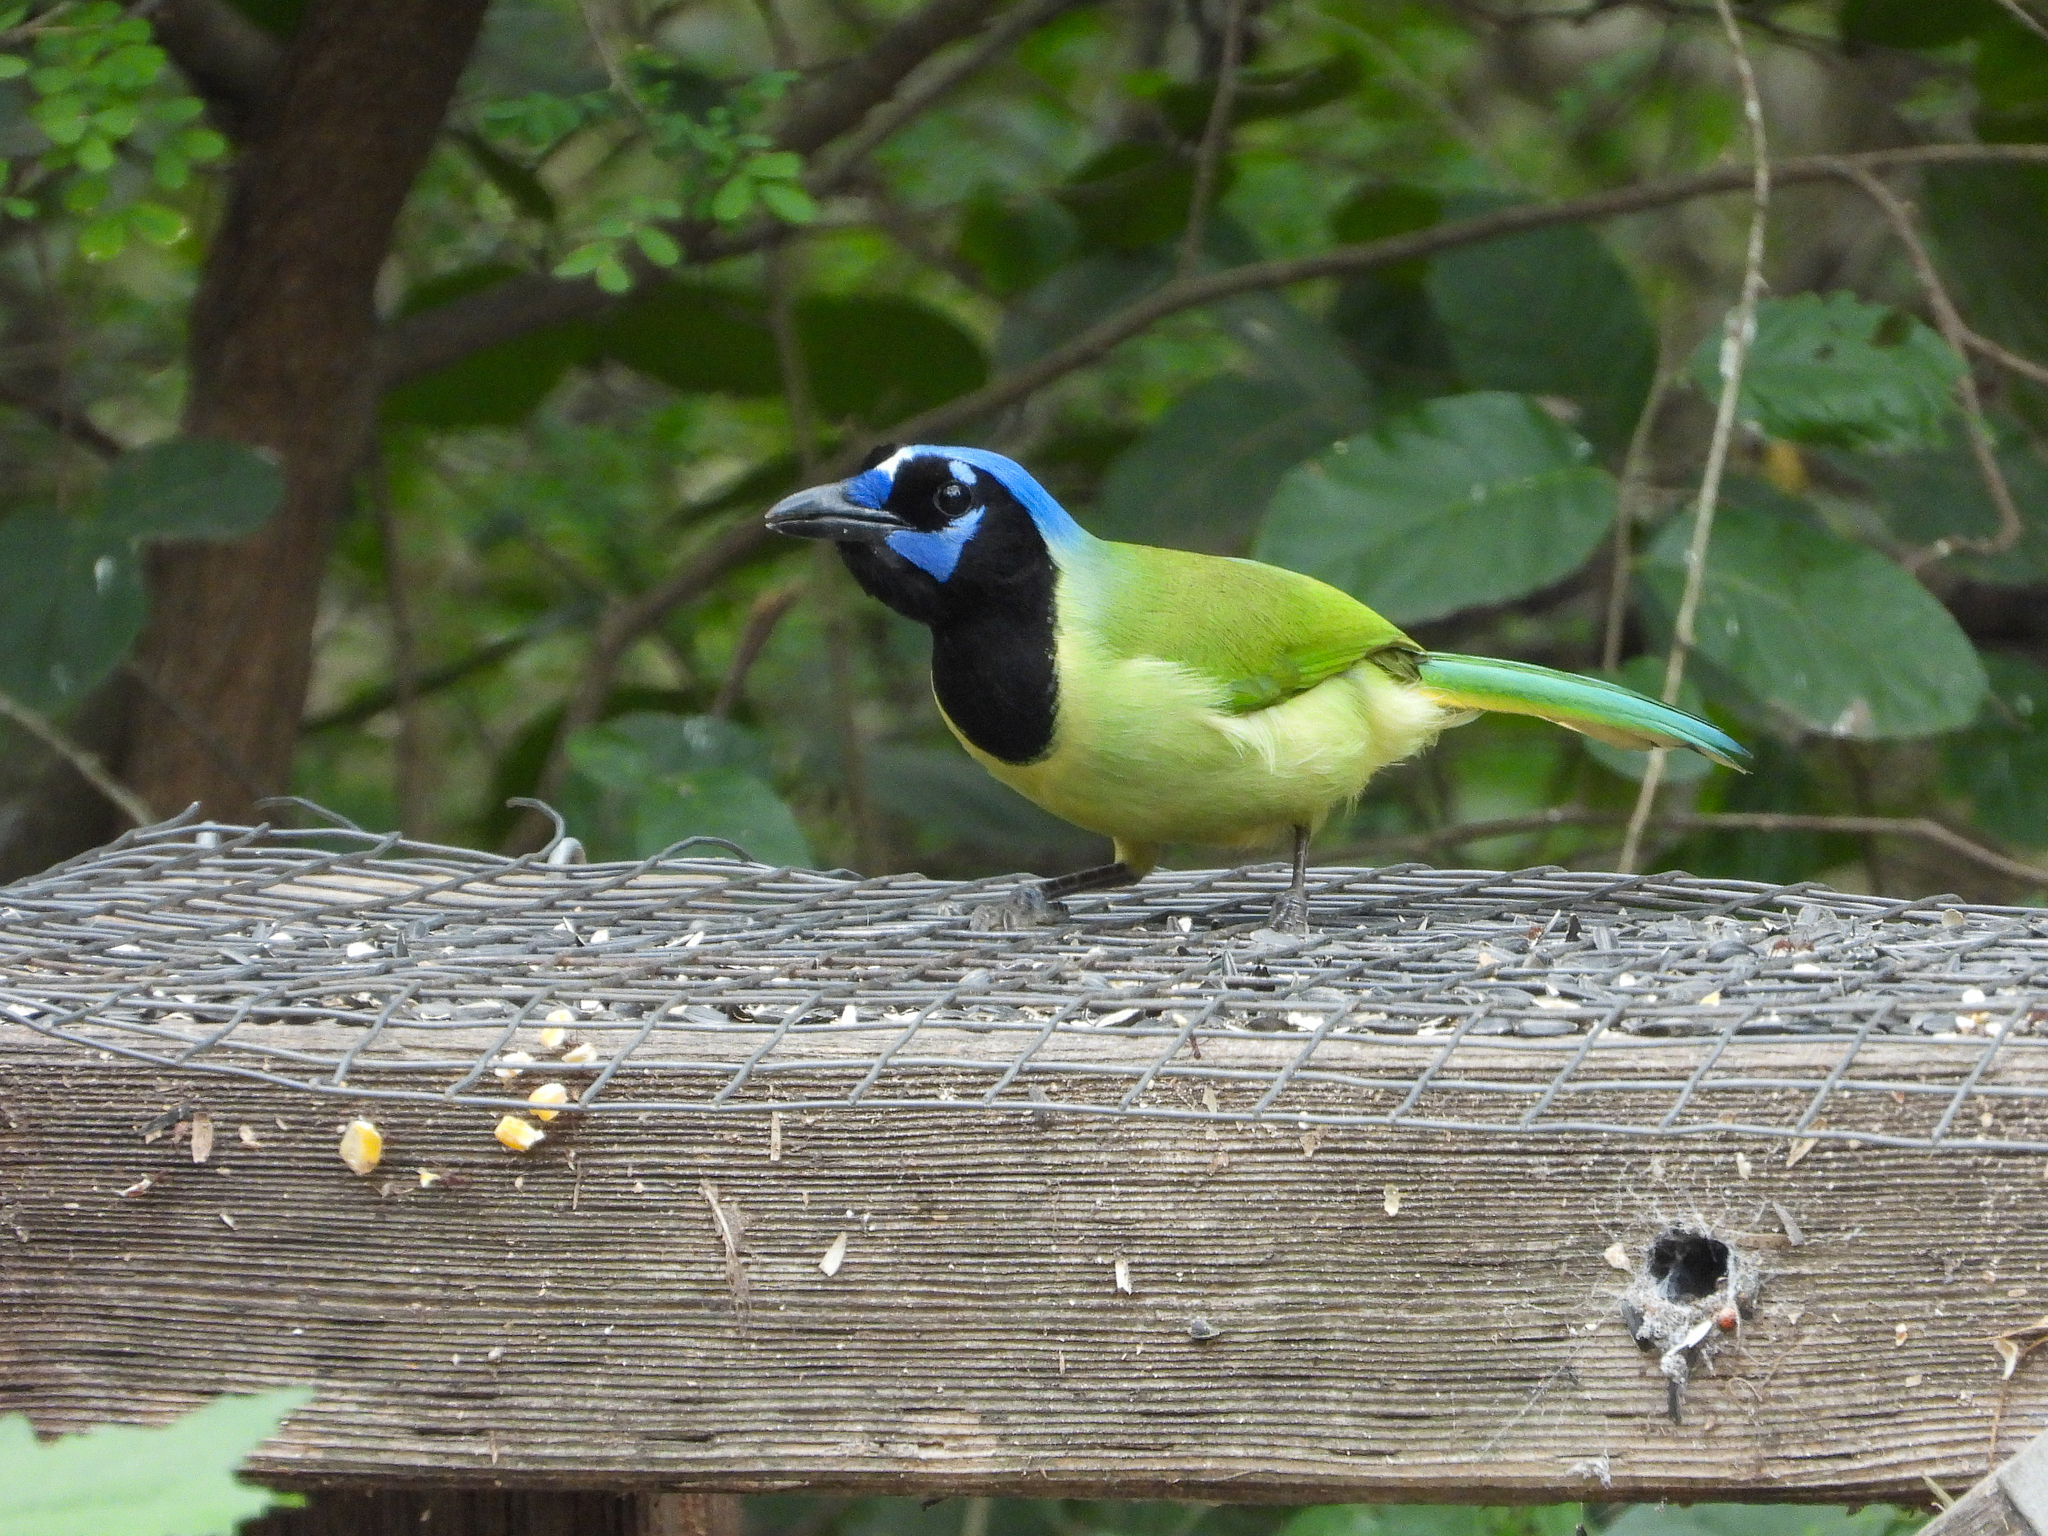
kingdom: Animalia
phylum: Chordata
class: Aves
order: Passeriformes
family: Corvidae
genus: Cyanocorax
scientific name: Cyanocorax yncas
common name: Green jay
